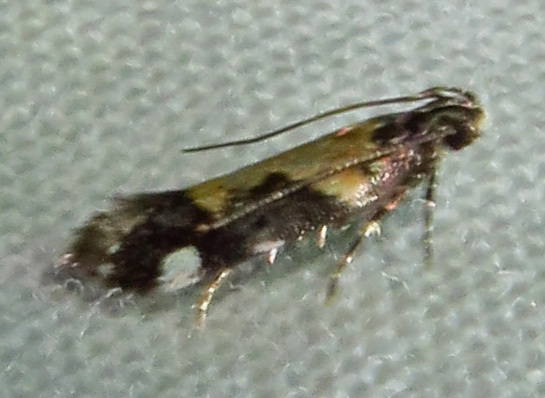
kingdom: Animalia
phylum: Arthropoda
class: Insecta
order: Lepidoptera
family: Gelechiidae
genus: Stegasta
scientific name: Stegasta bosqueella
